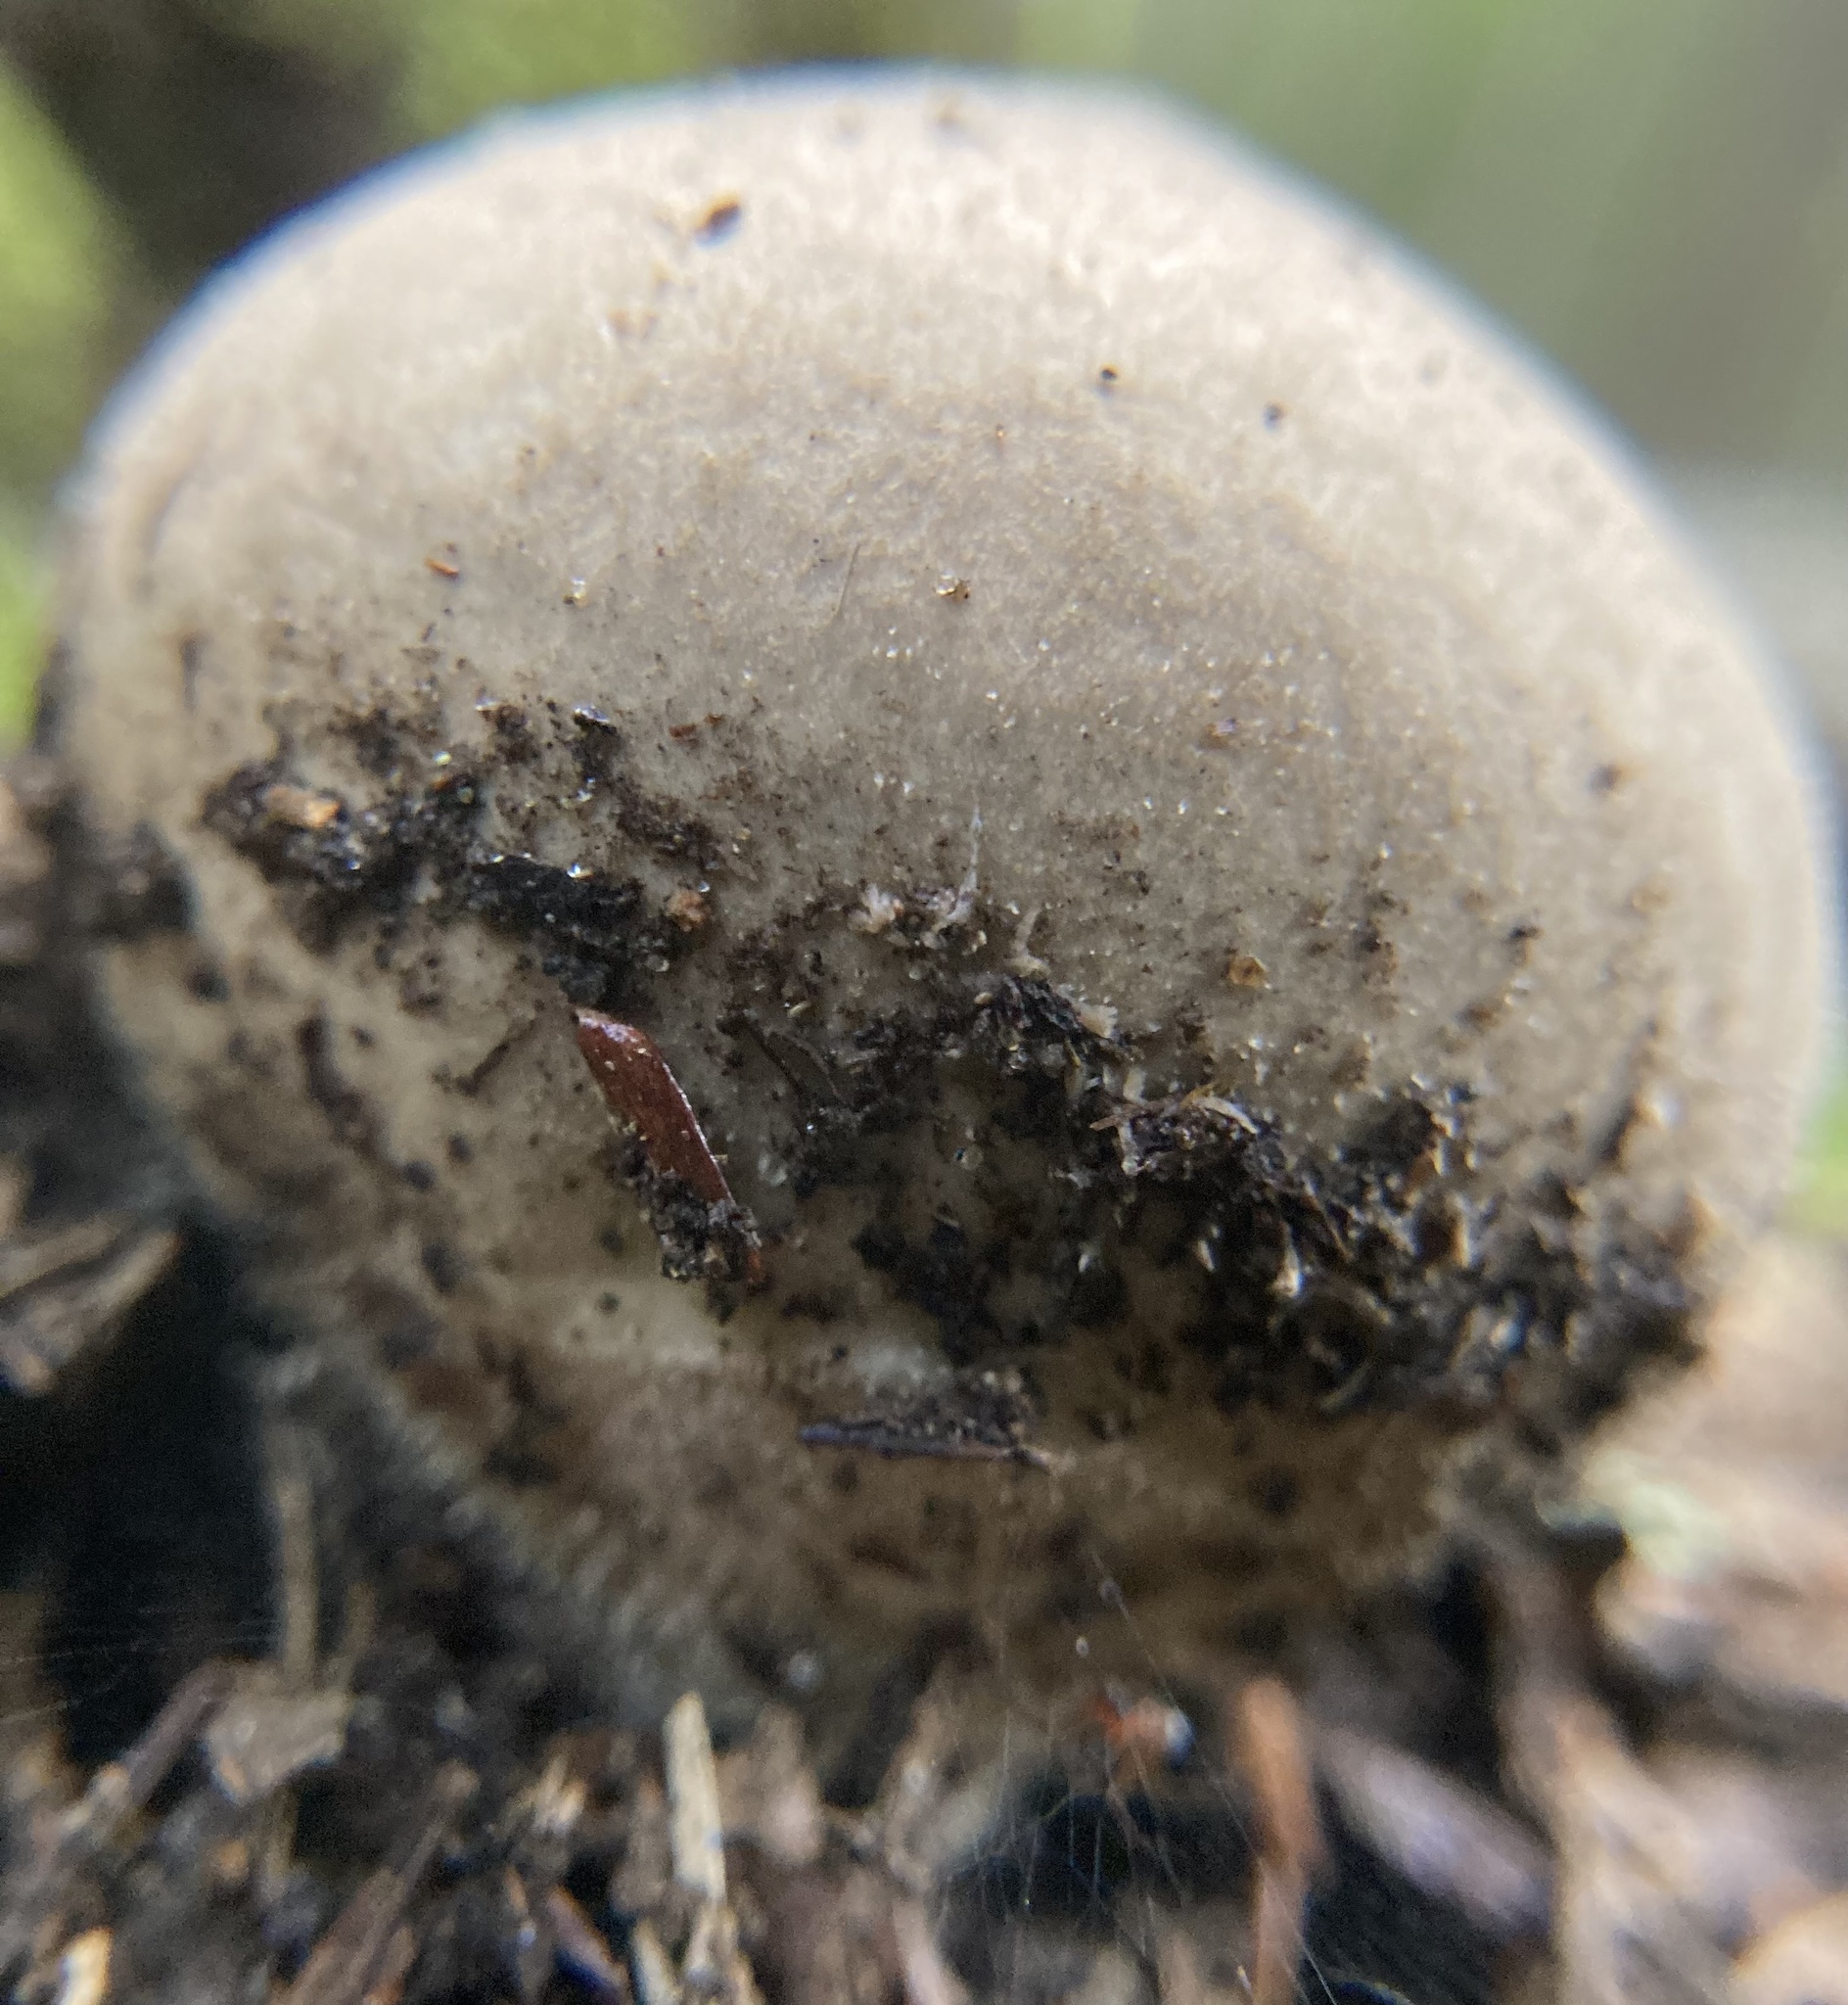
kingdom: Fungi
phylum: Basidiomycota
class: Agaricomycetes
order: Agaricales
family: Lycoperdaceae
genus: Lycoperdon
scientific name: Lycoperdon perlatum
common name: Common puffball
